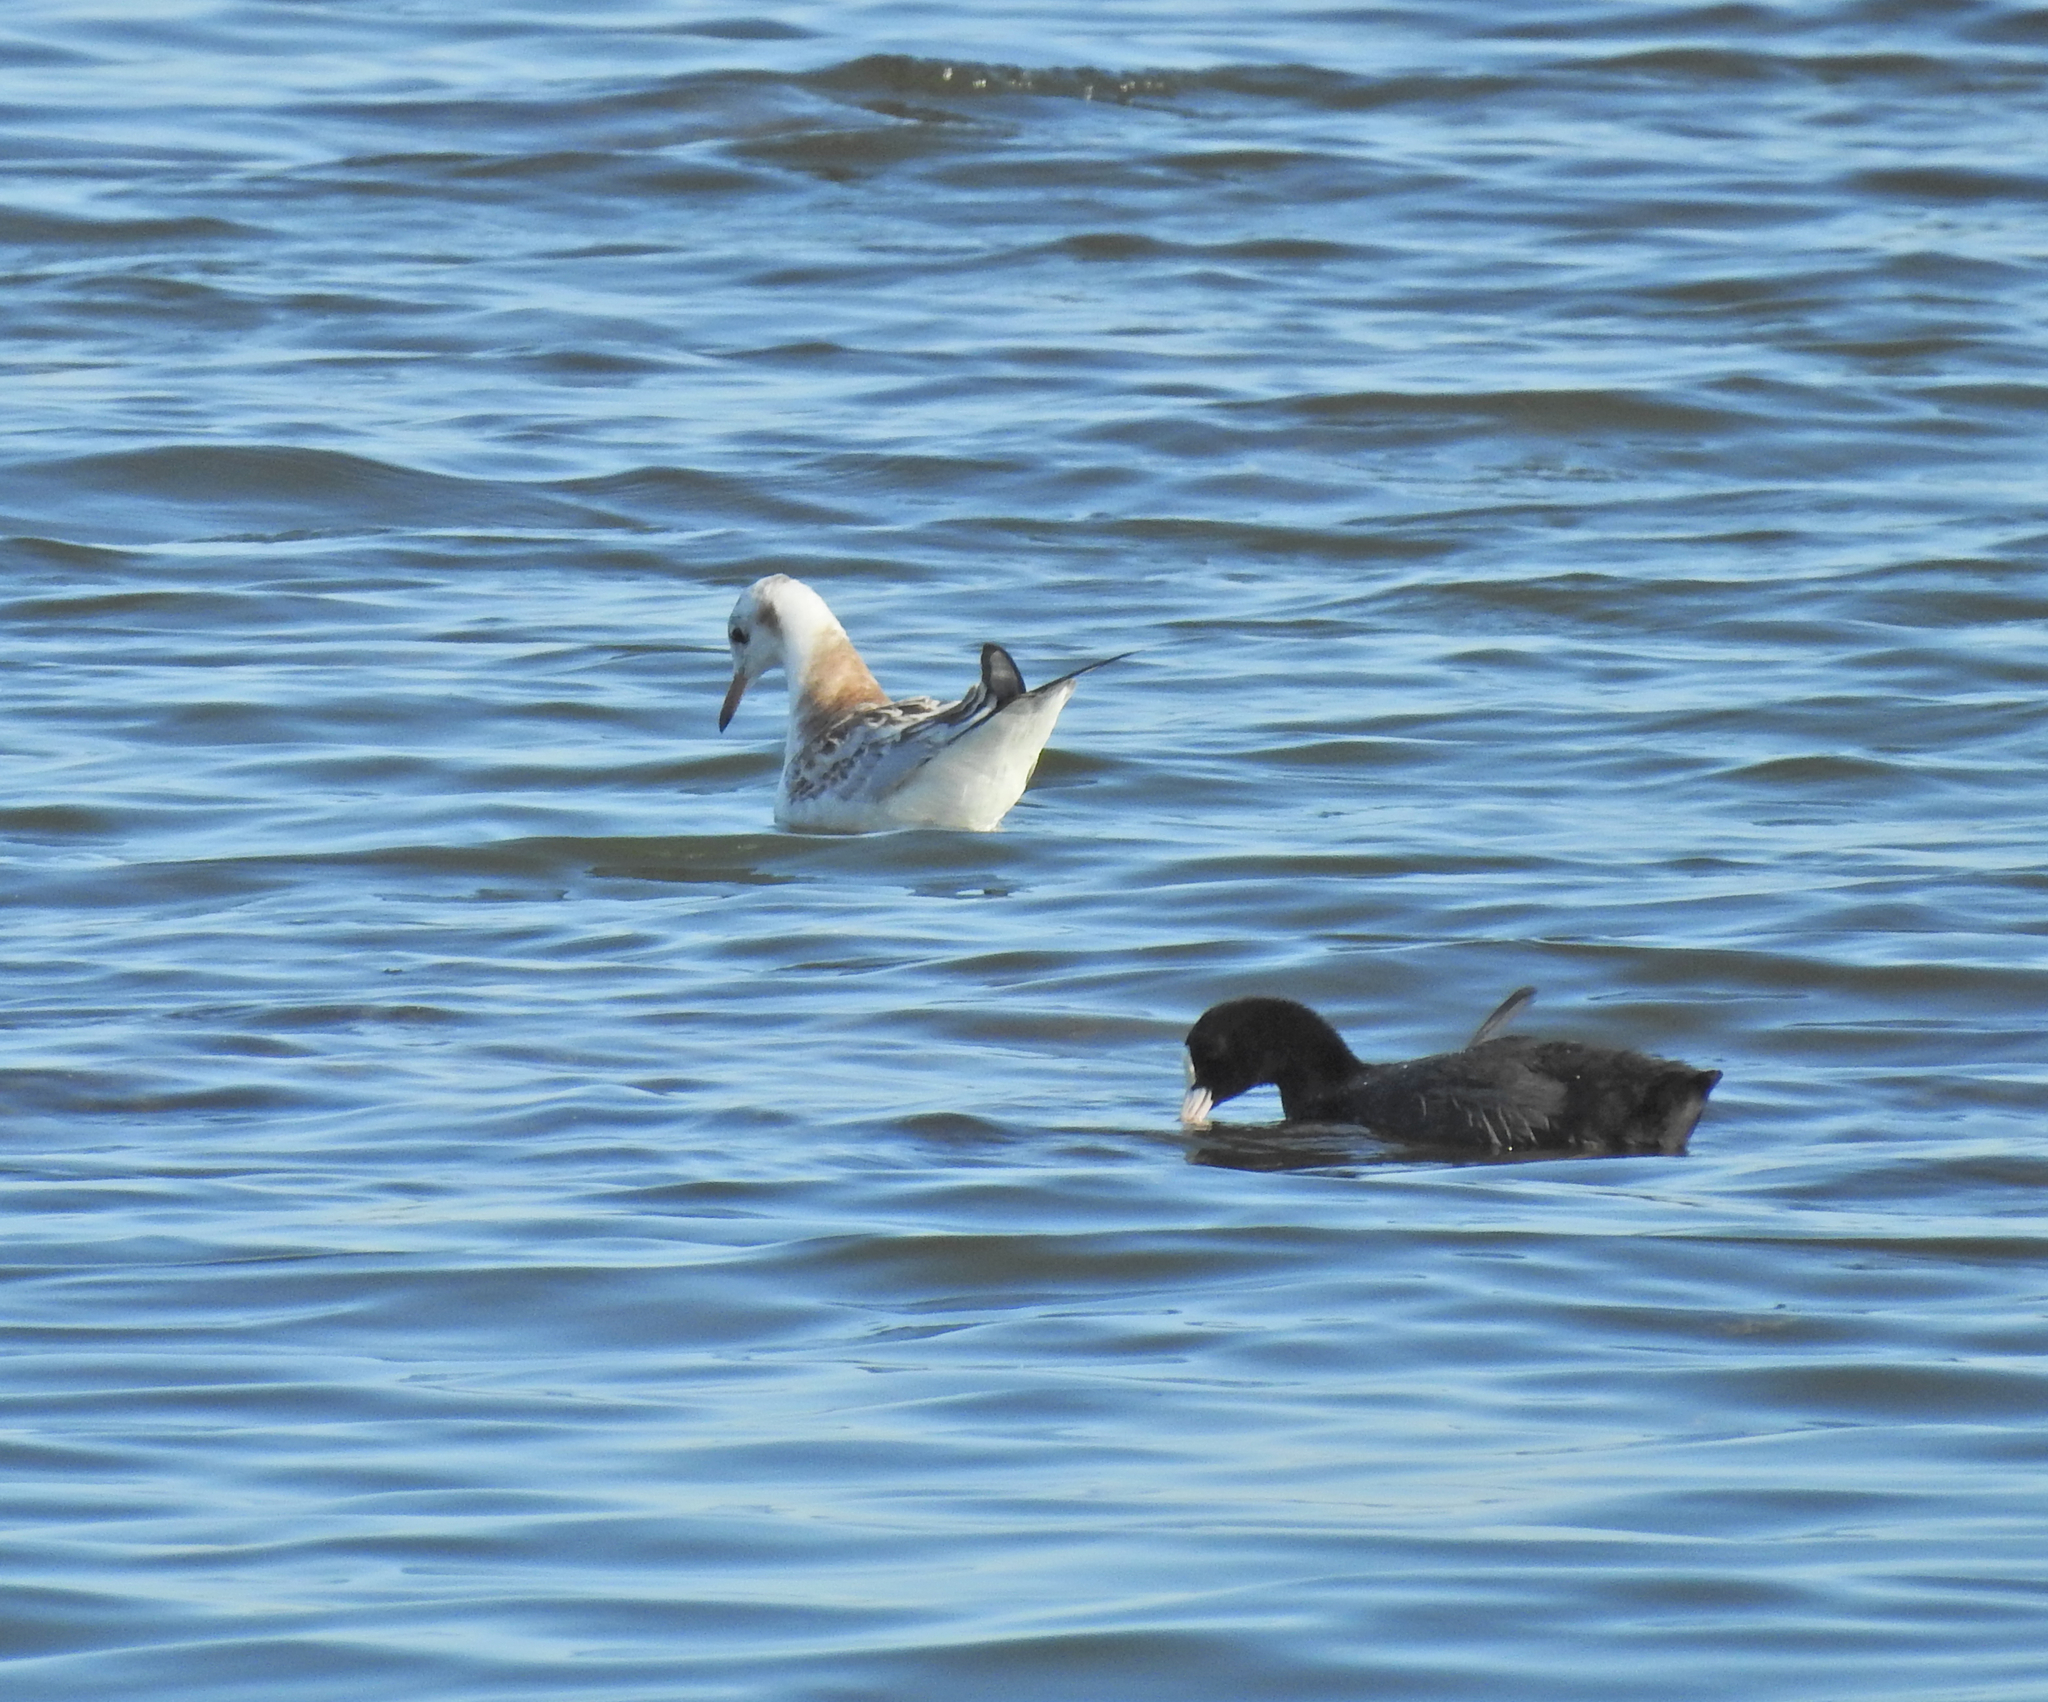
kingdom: Animalia
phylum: Chordata
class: Aves
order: Charadriiformes
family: Laridae
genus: Chroicocephalus
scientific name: Chroicocephalus ridibundus
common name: Black-headed gull
